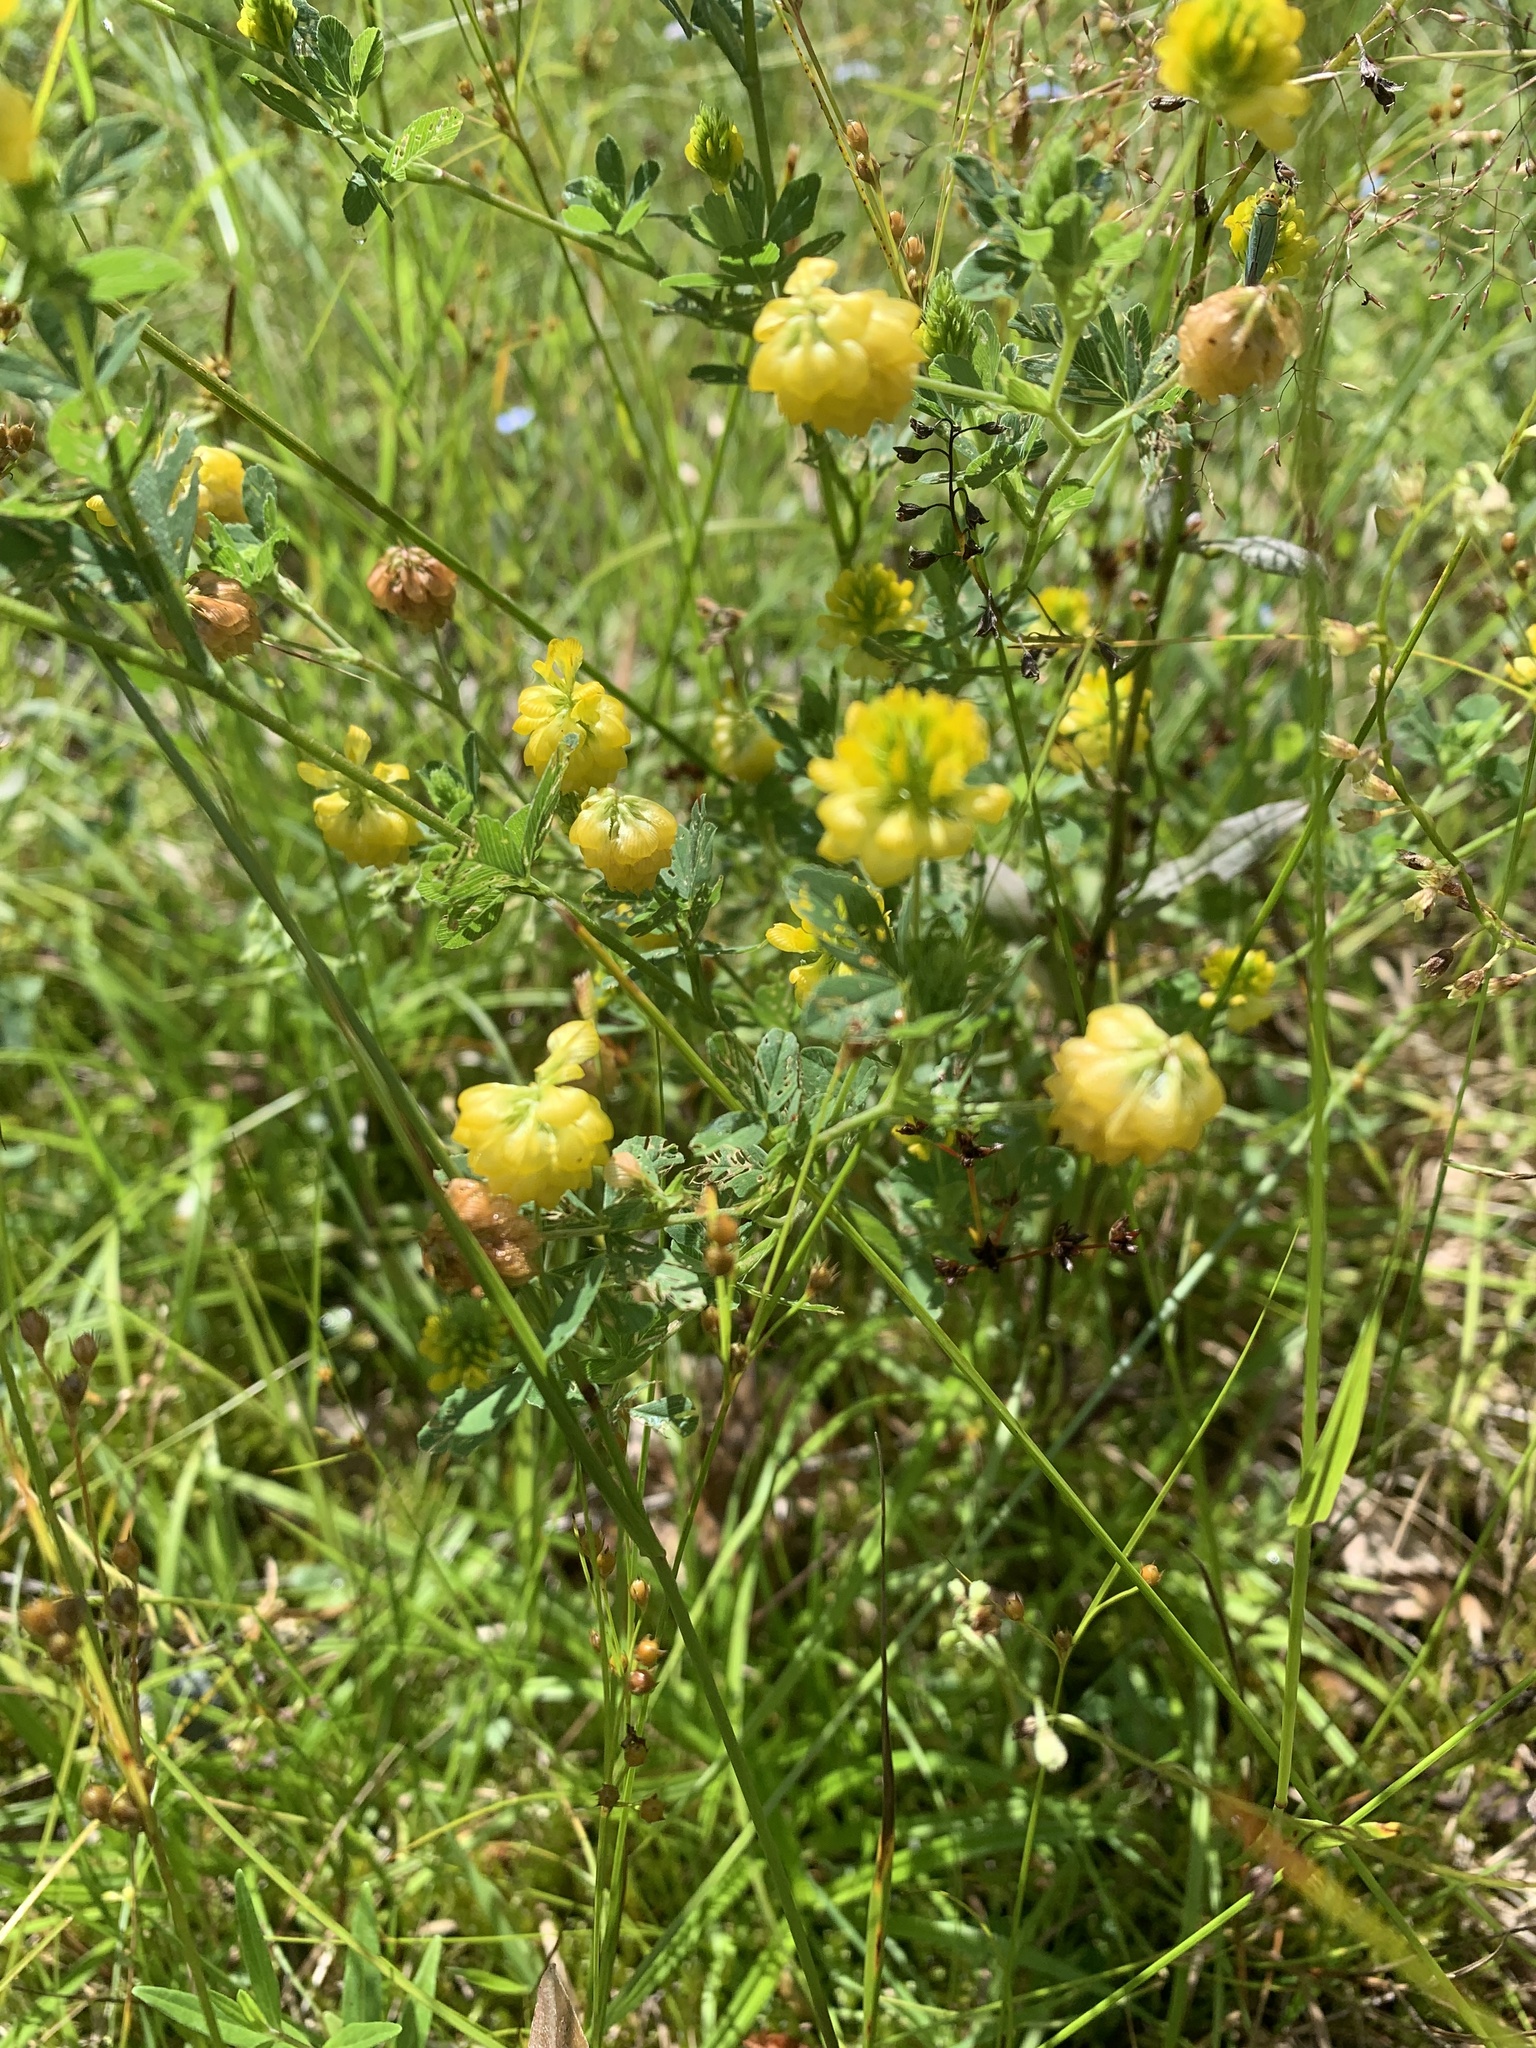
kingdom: Plantae
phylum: Tracheophyta
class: Magnoliopsida
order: Fabales
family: Fabaceae
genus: Trifolium
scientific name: Trifolium aureum
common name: Golden clover
